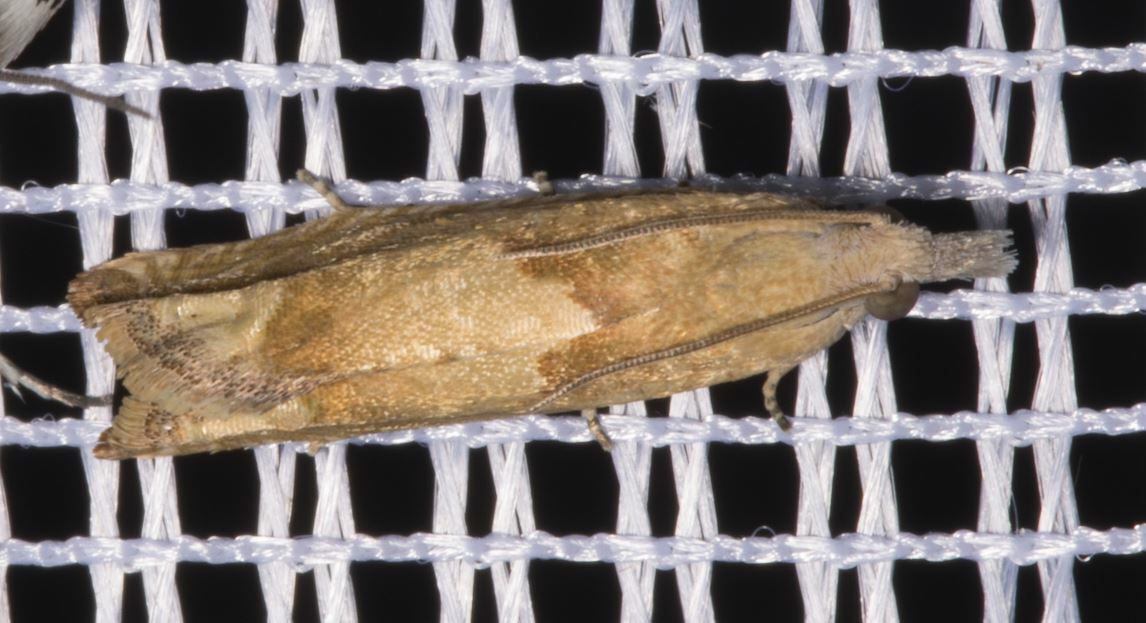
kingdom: Animalia
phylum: Arthropoda
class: Insecta
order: Lepidoptera
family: Tortricidae
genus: Eucosma
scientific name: Eucosma conterminana
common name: Pale lettuce bell
